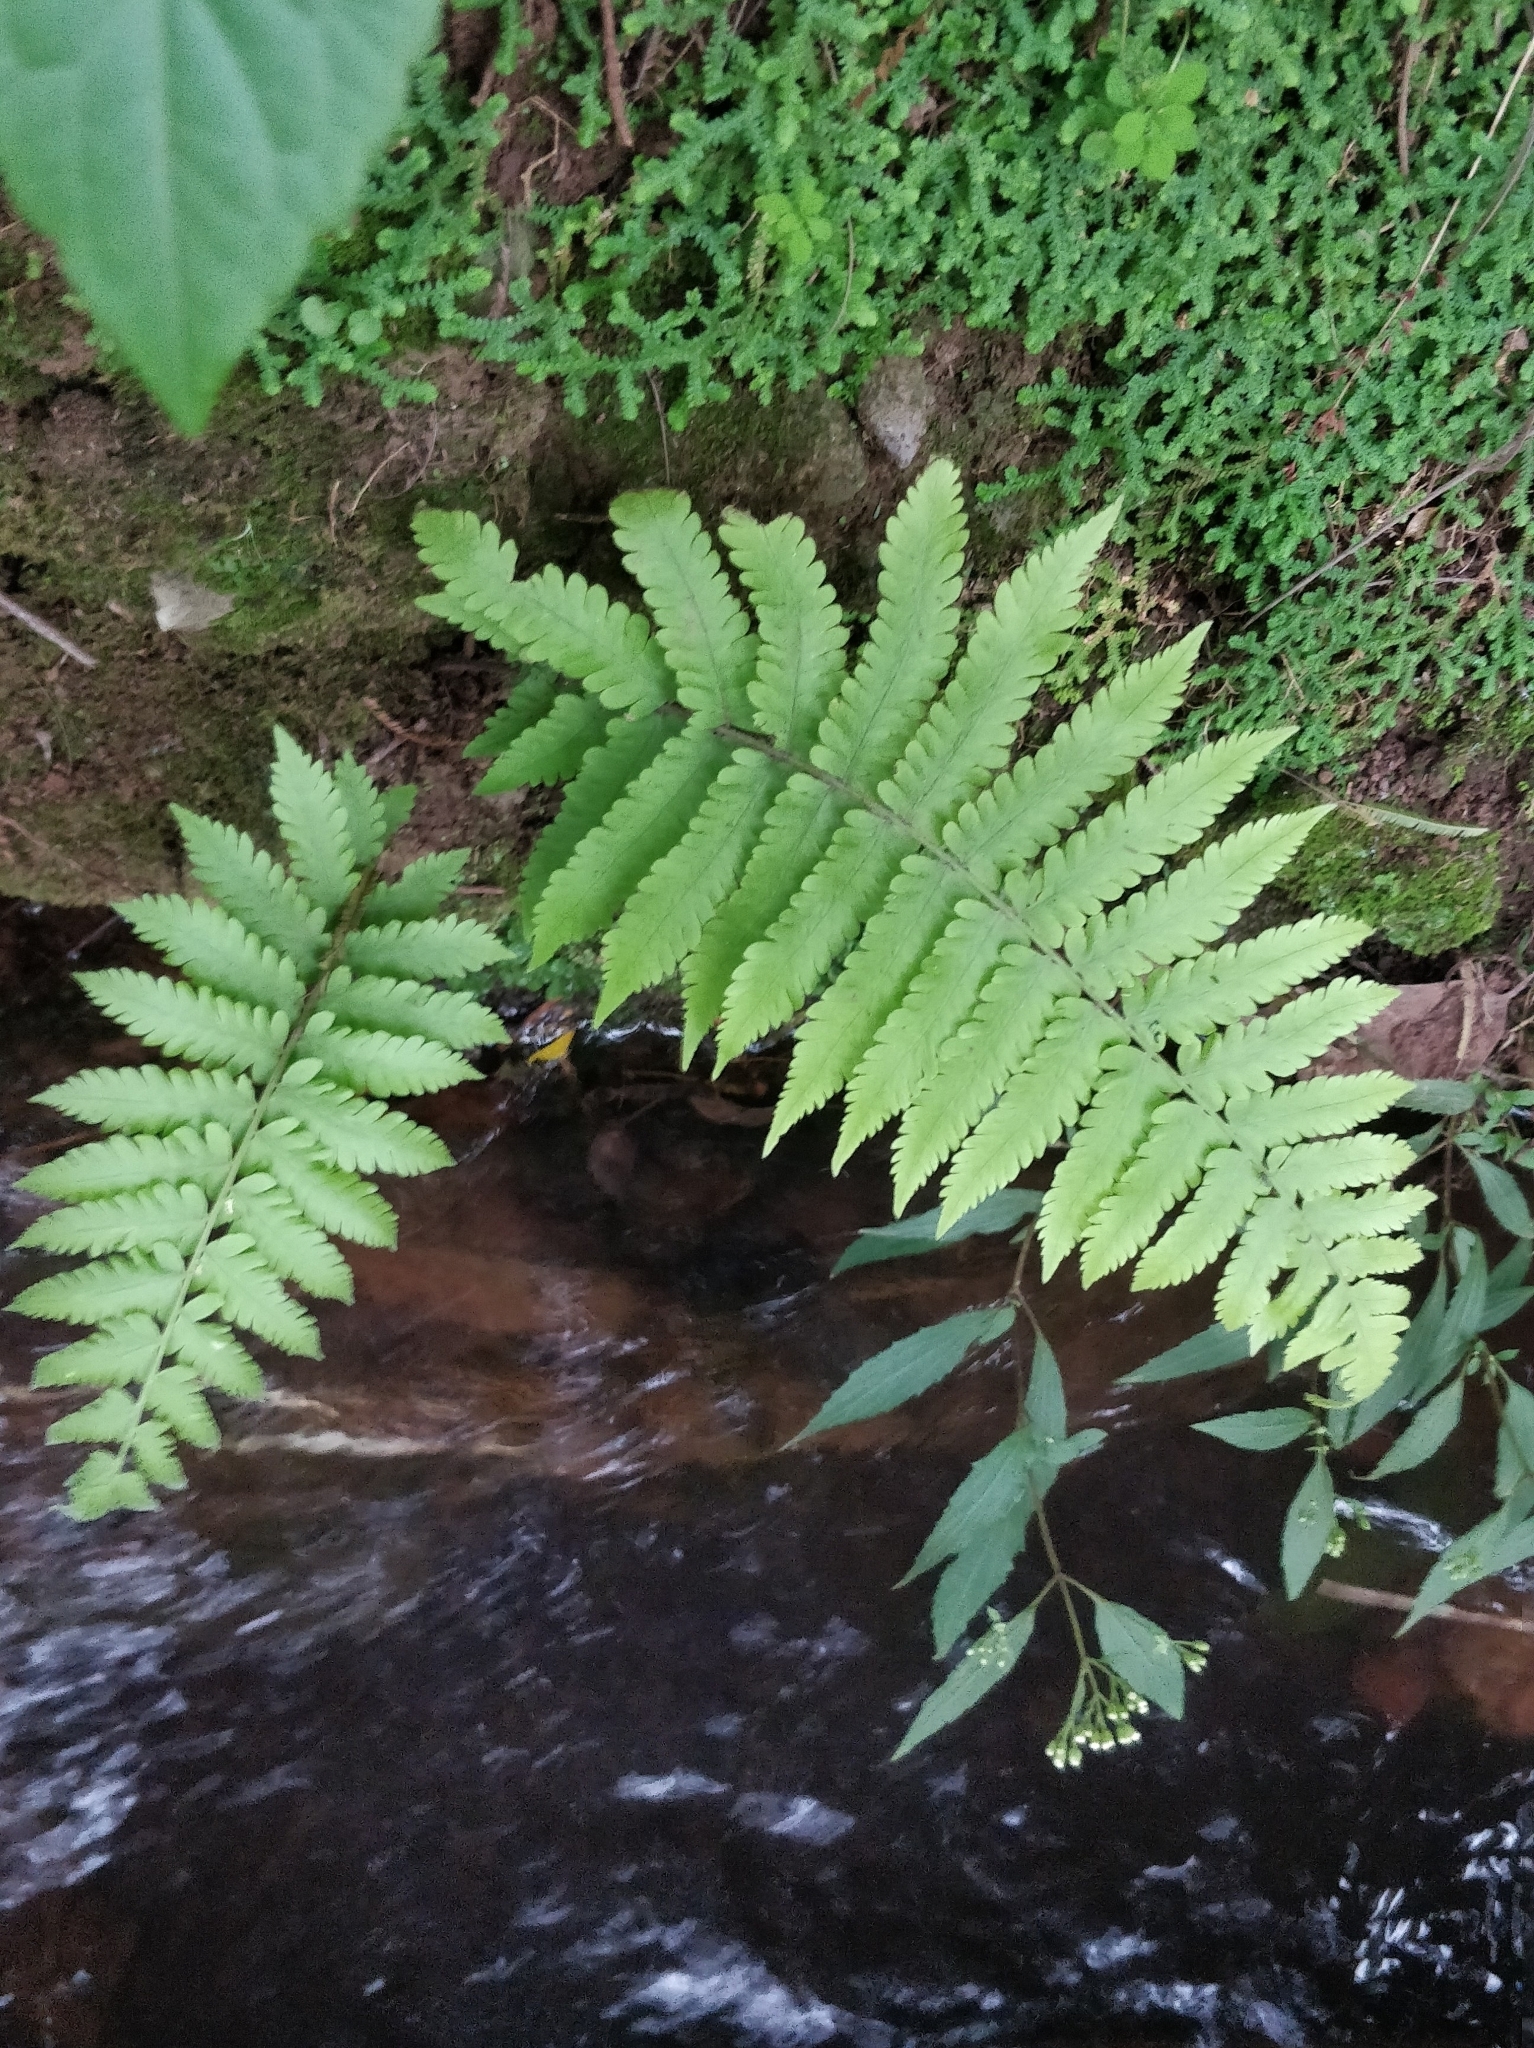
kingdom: Plantae
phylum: Tracheophyta
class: Polypodiopsida
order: Polypodiales
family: Thelypteridaceae
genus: Christella
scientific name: Christella dentata
